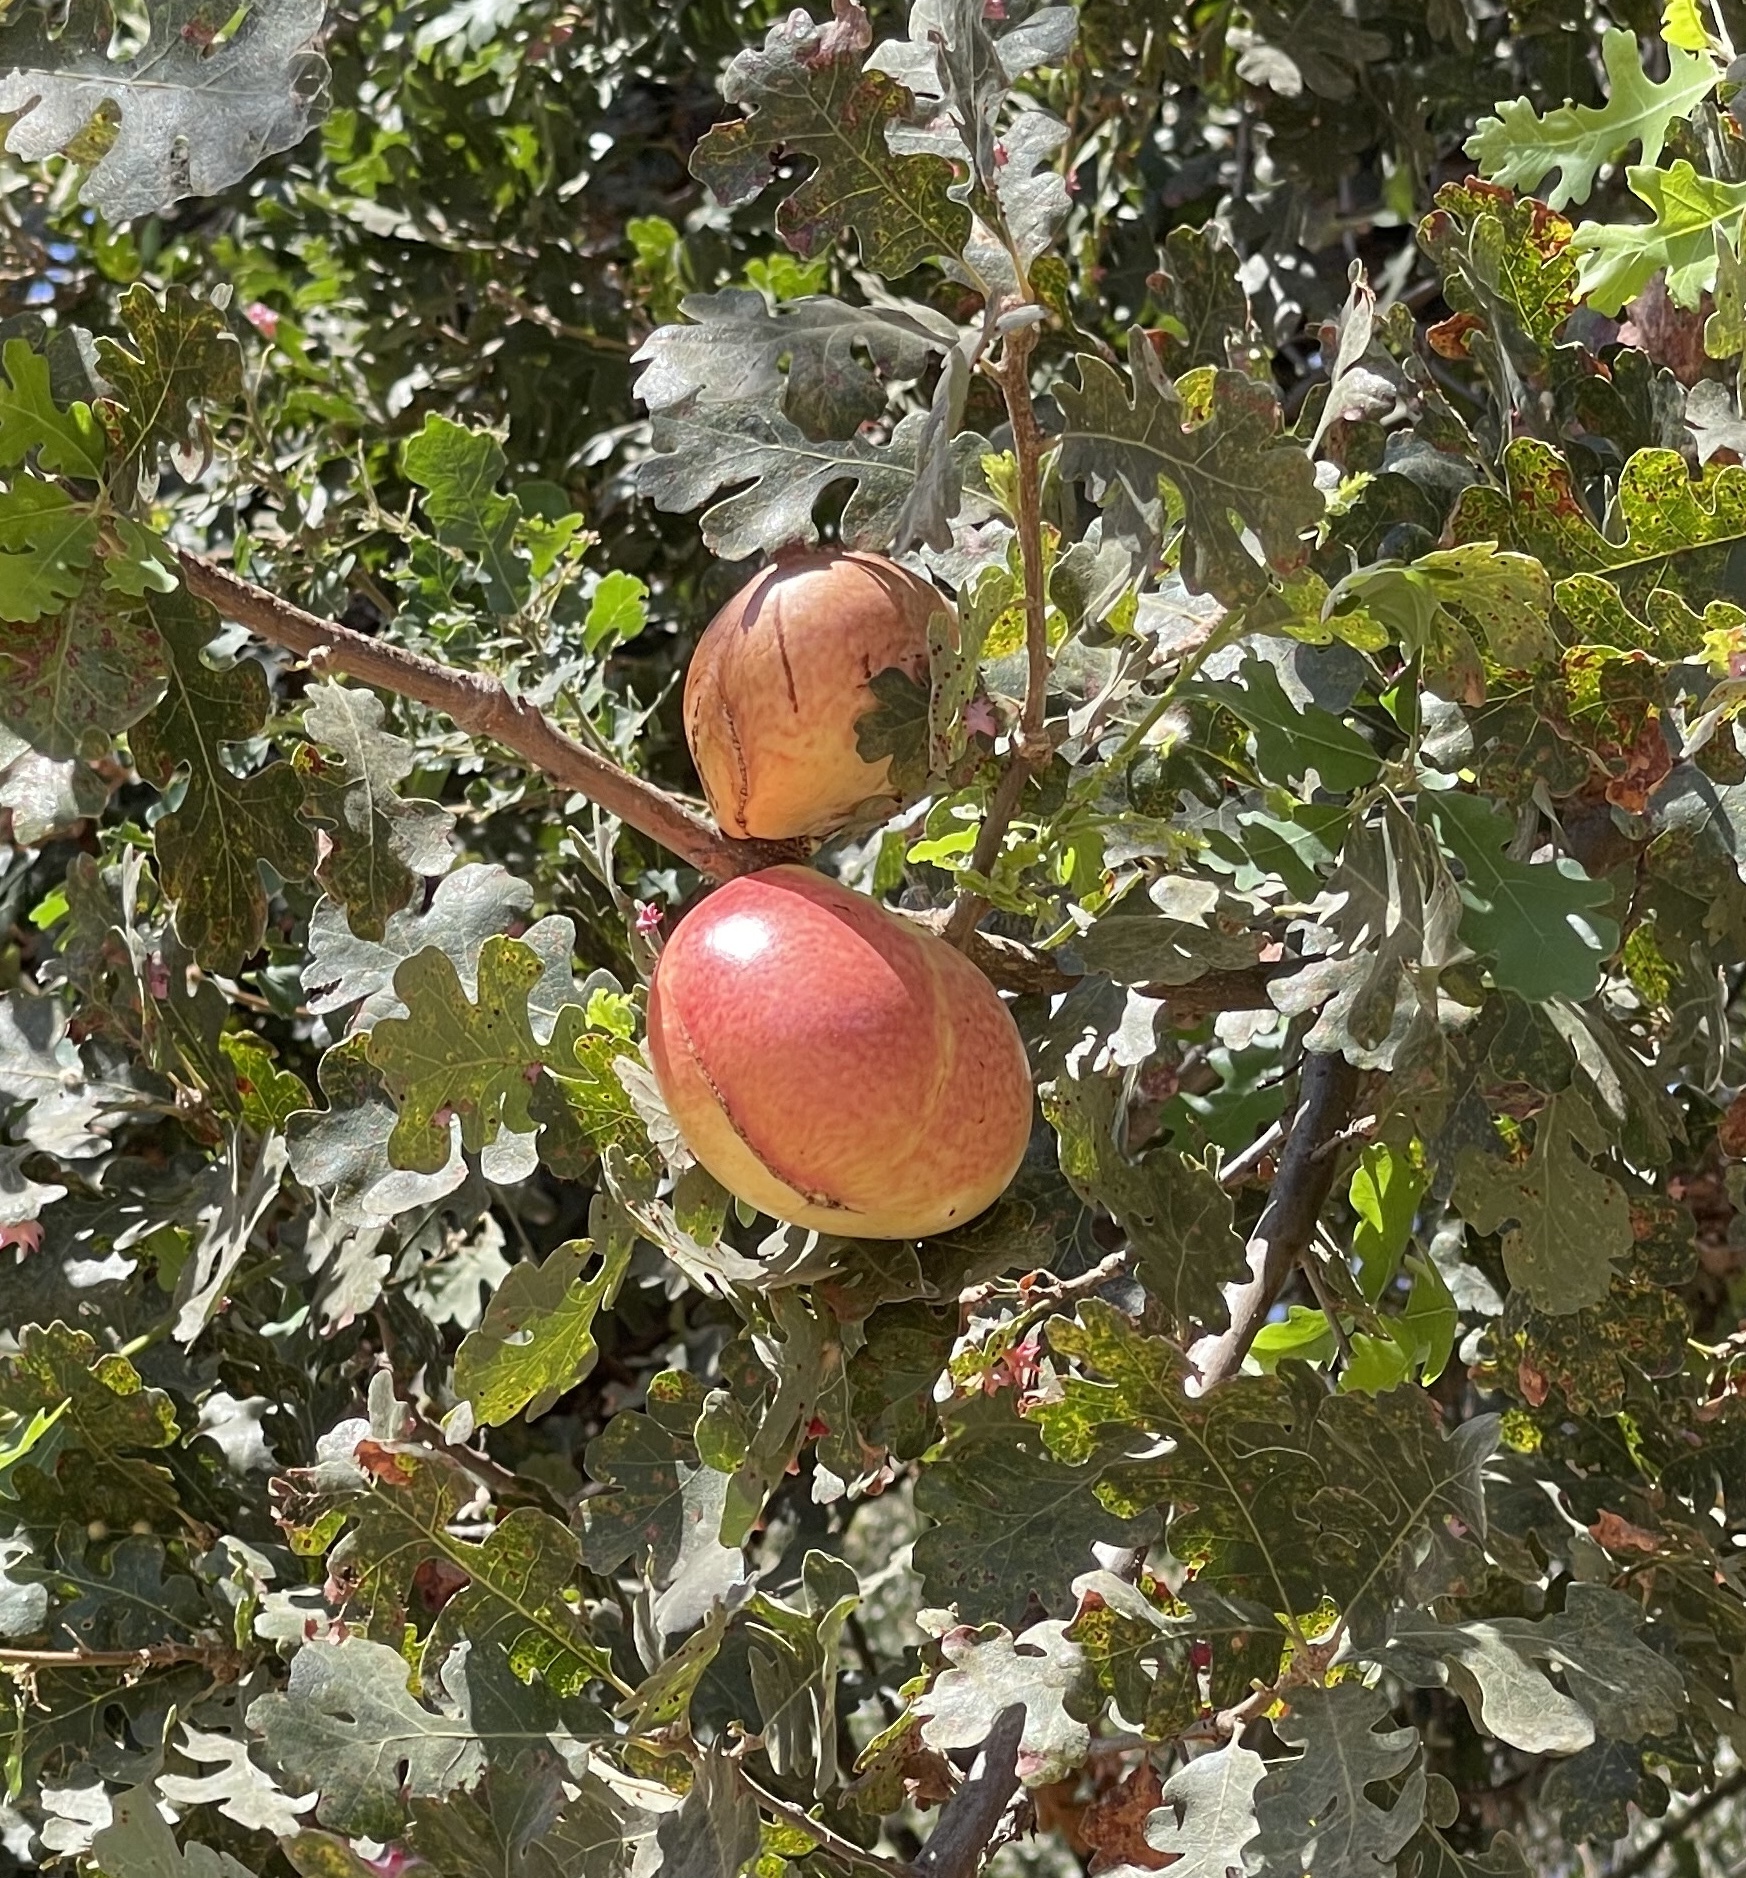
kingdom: Animalia
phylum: Arthropoda
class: Insecta
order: Hymenoptera
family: Cynipidae
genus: Andricus
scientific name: Andricus quercuscalifornicus
